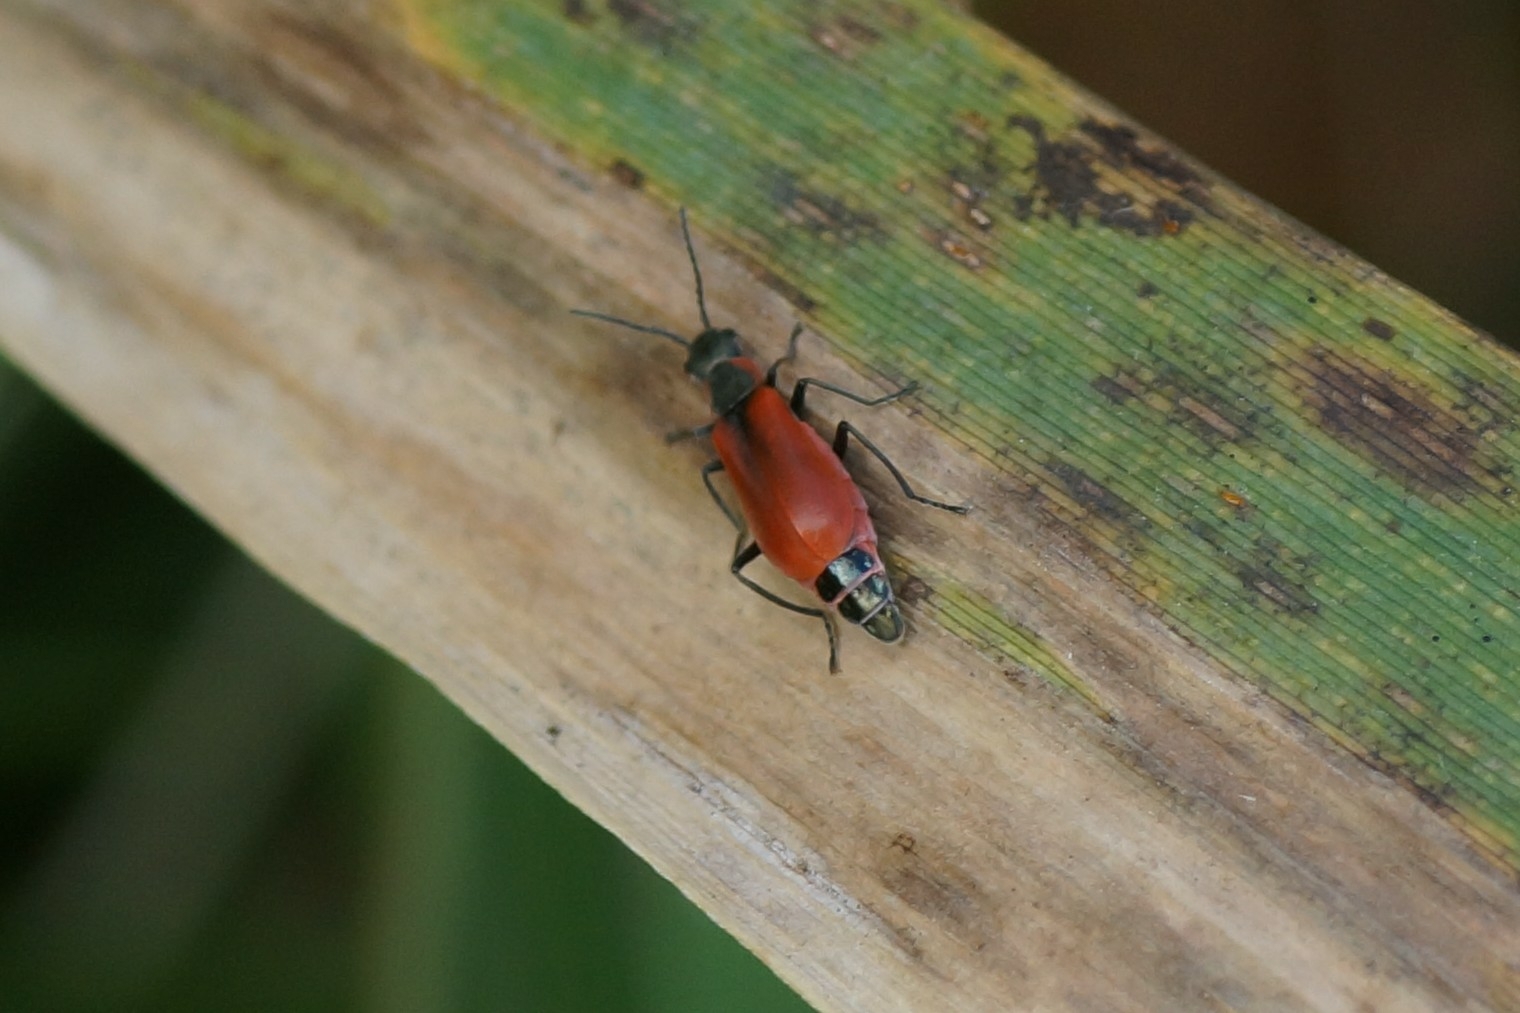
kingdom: Animalia
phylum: Arthropoda
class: Insecta
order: Coleoptera
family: Melyridae
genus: Anthocomus
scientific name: Anthocomus rufus
